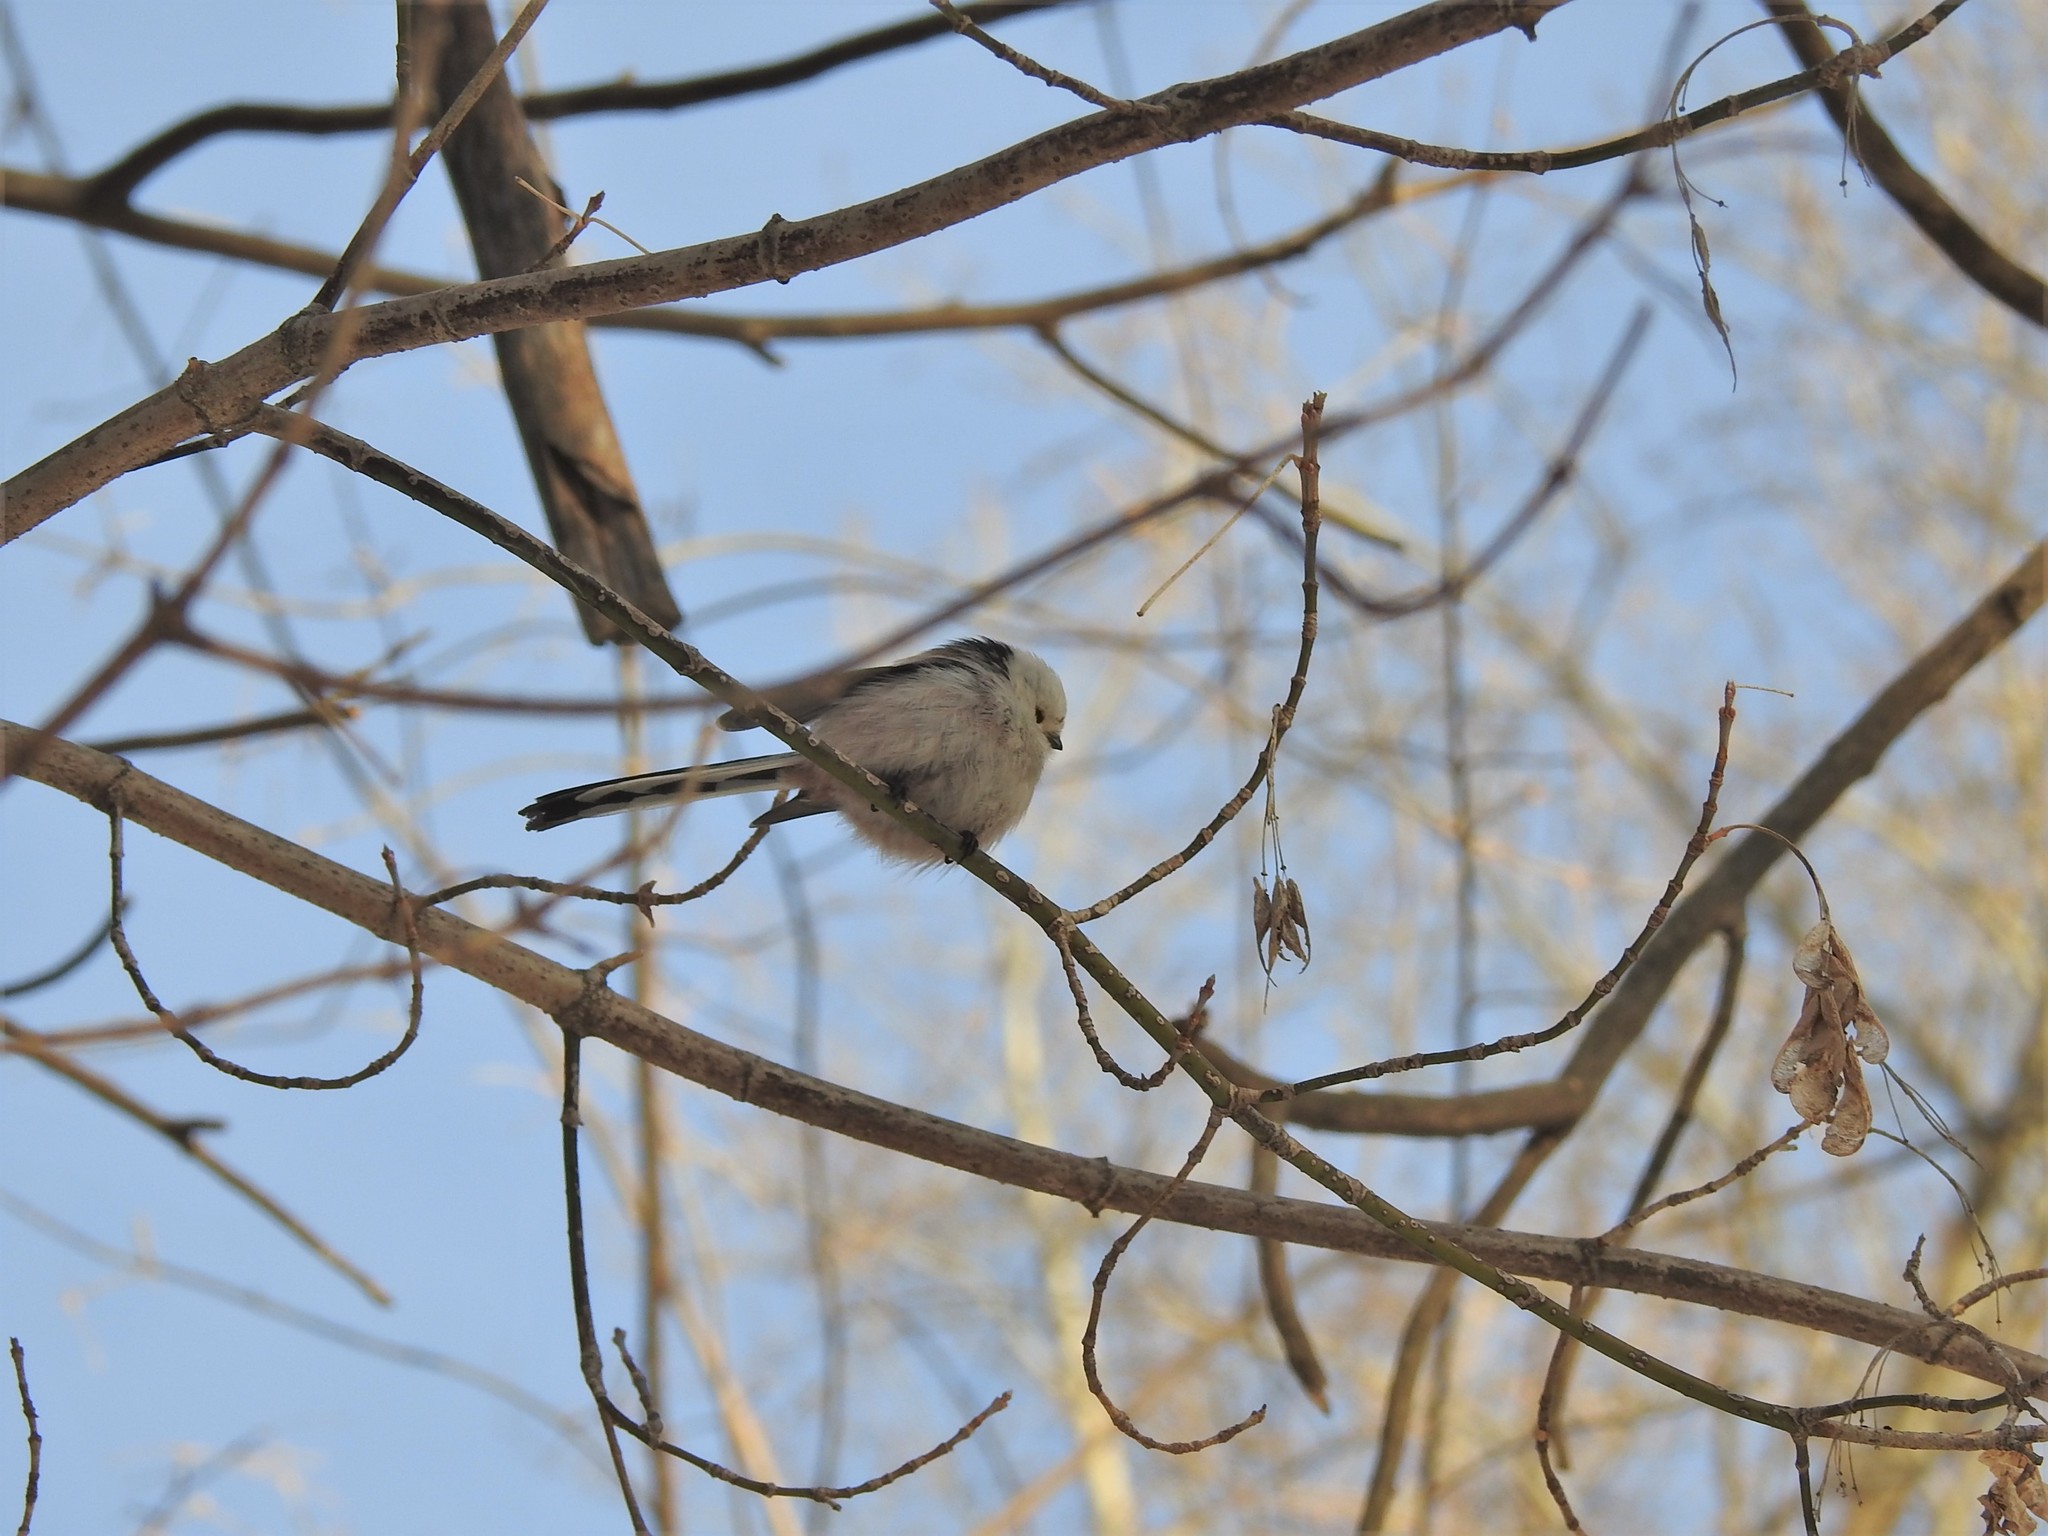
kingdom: Animalia
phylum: Chordata
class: Aves
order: Passeriformes
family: Aegithalidae
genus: Aegithalos
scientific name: Aegithalos caudatus
